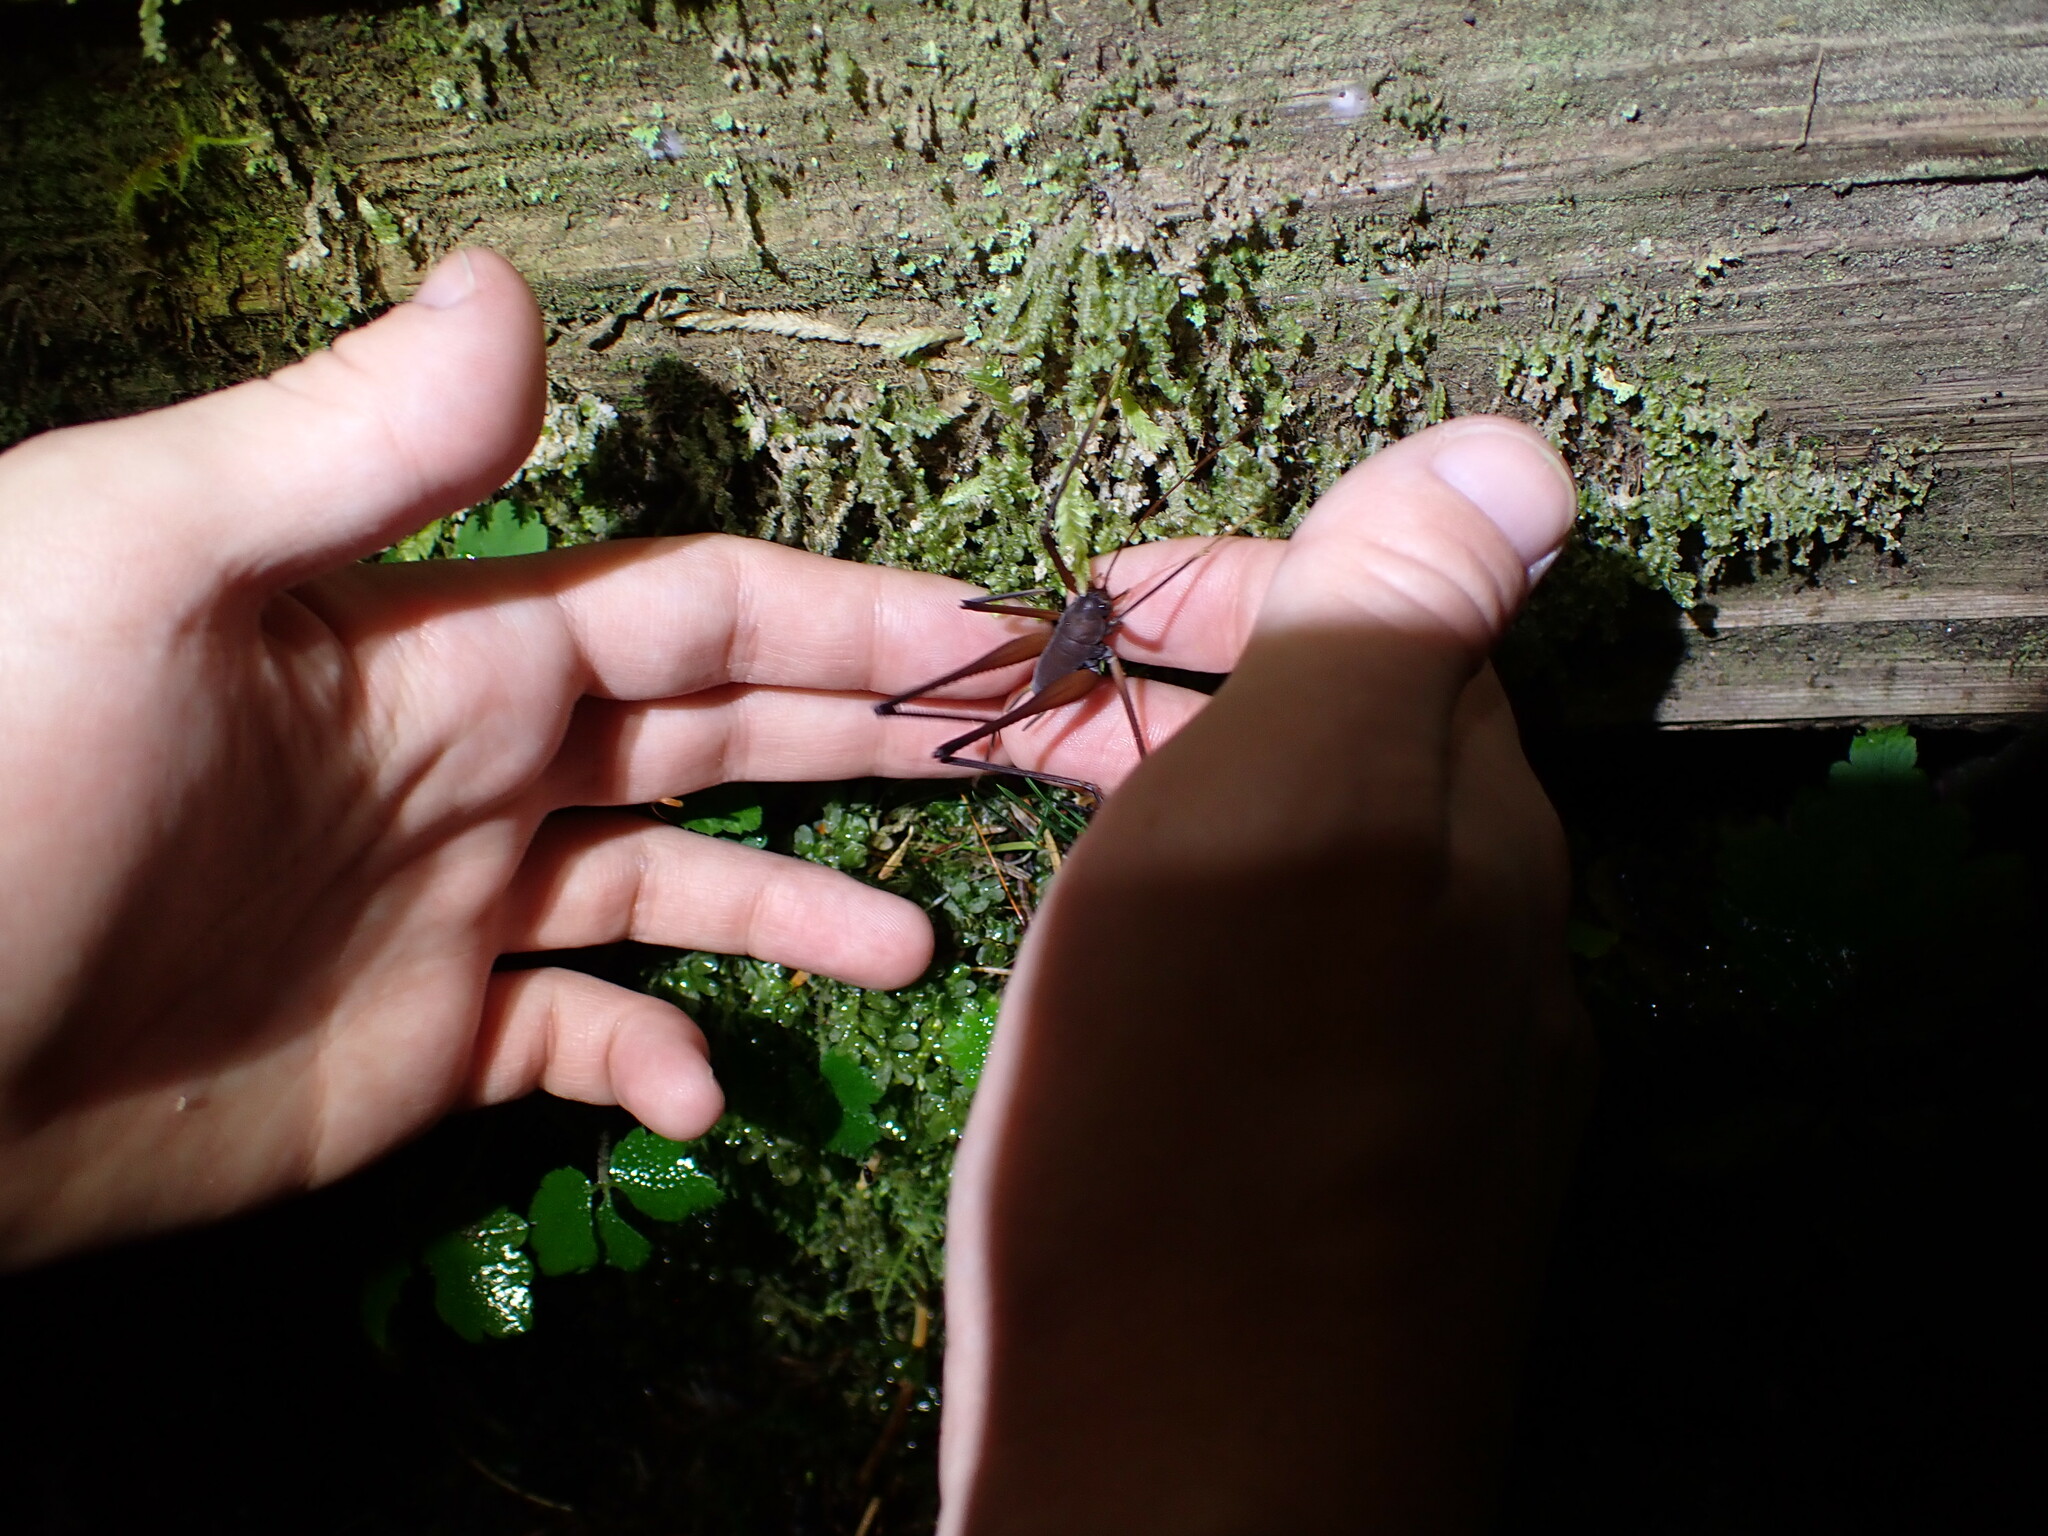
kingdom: Animalia
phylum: Arthropoda
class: Insecta
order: Orthoptera
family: Rhaphidophoridae
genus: Tropidischia
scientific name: Tropidischia xanthostoma
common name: Square-legged camel cricket
